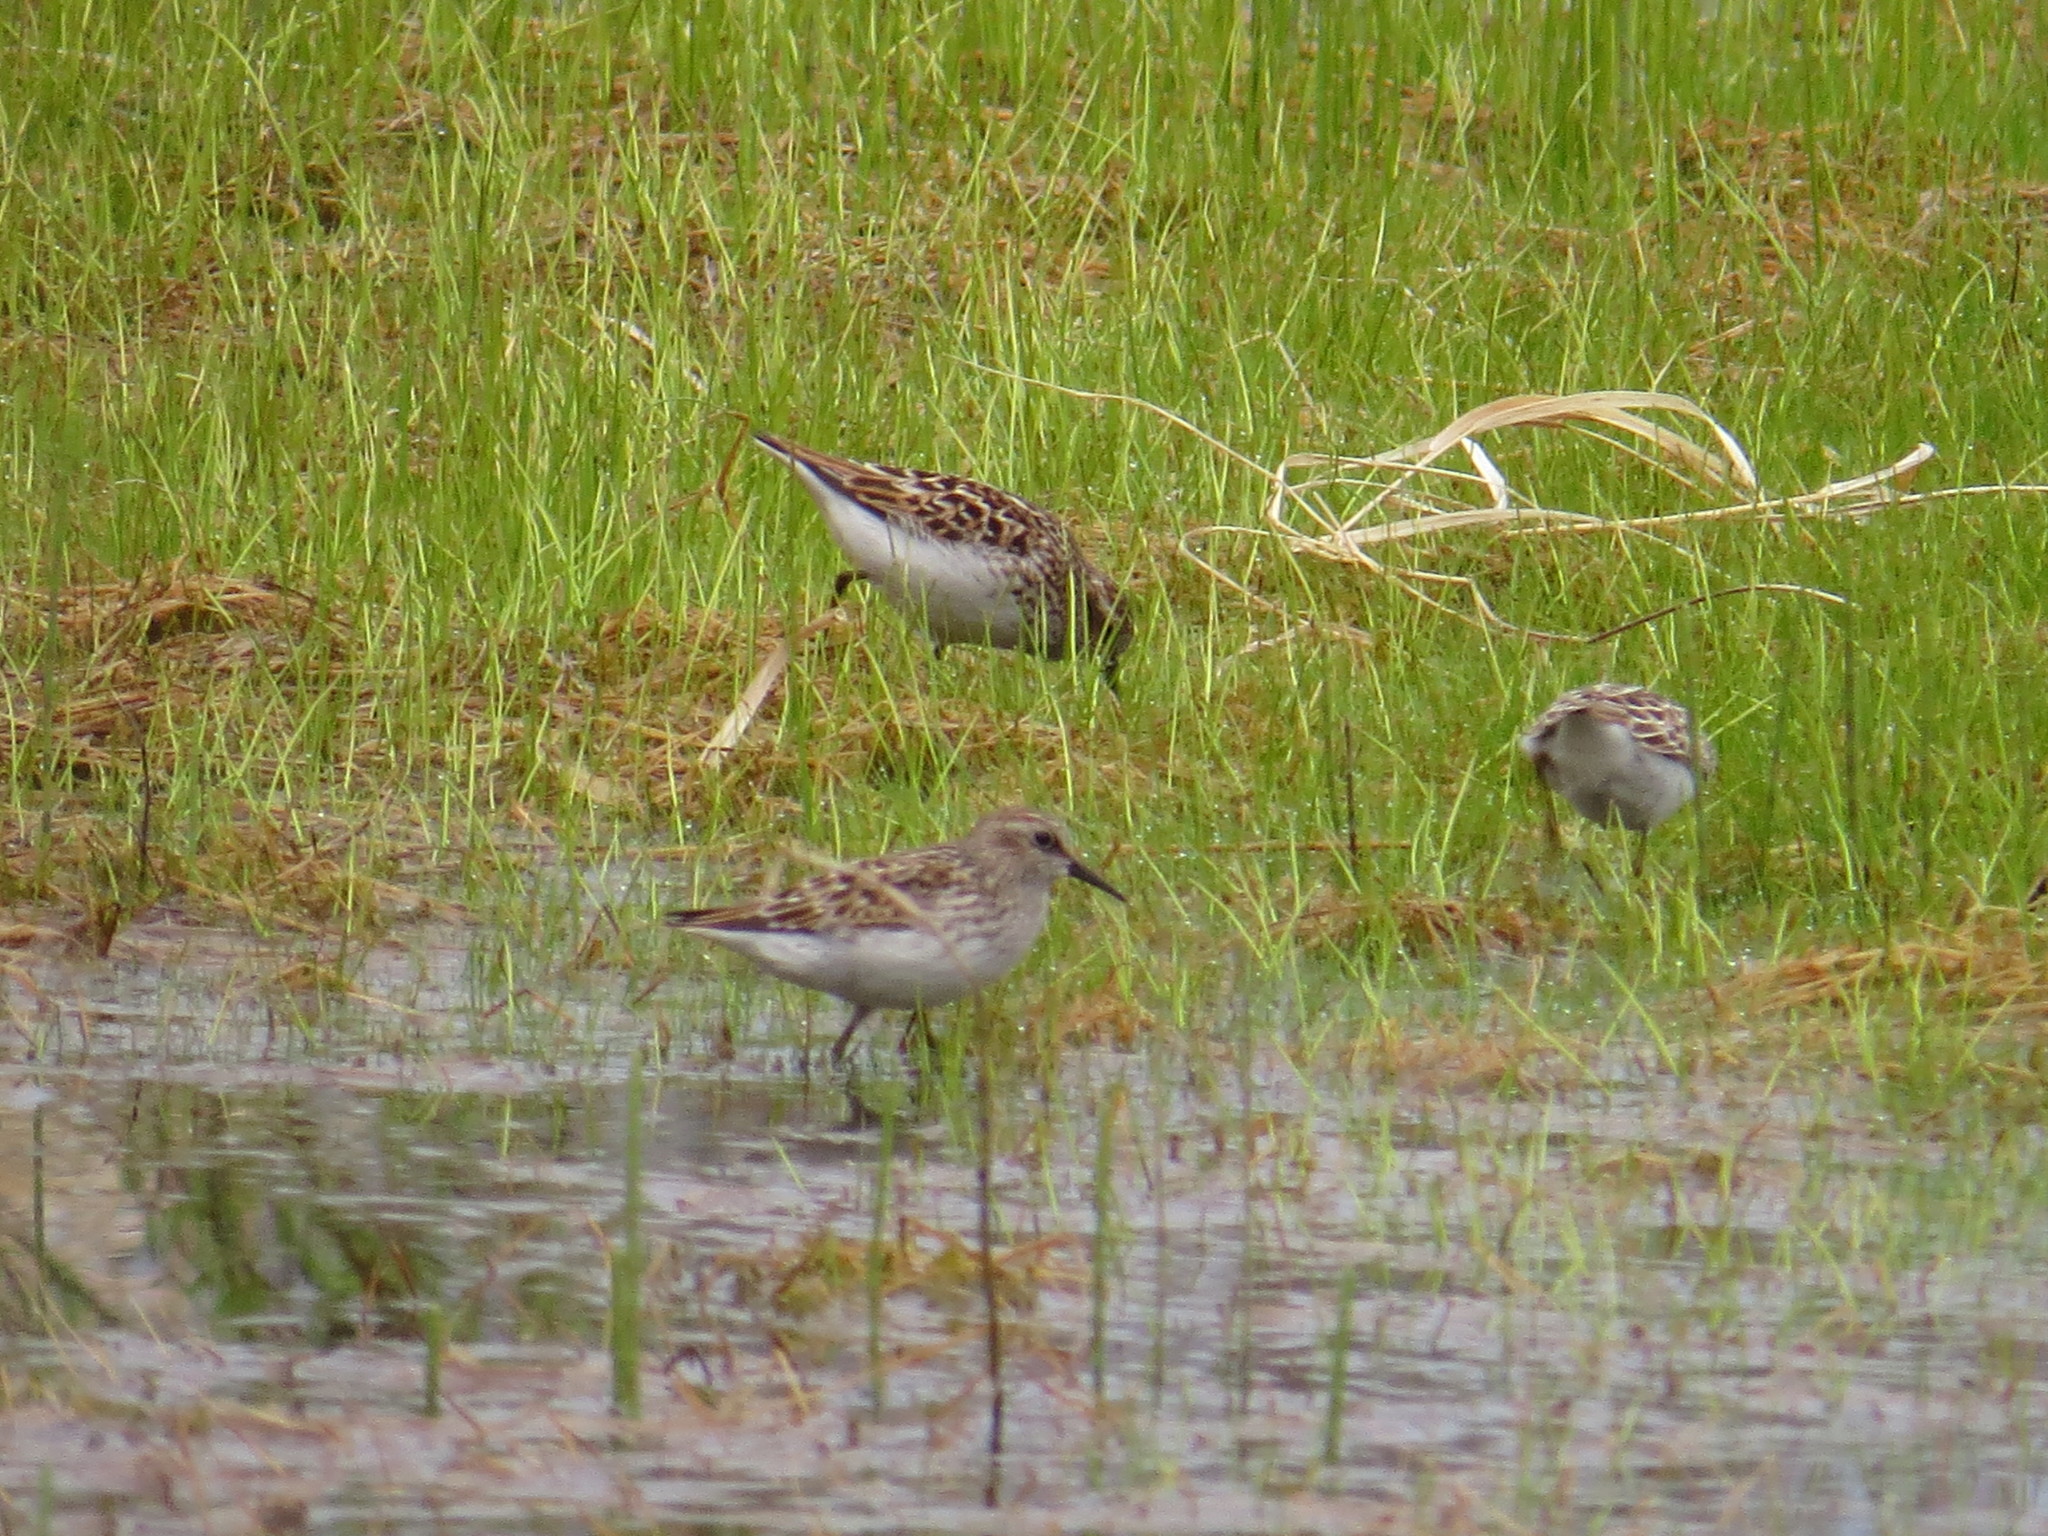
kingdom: Animalia
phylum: Chordata
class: Aves
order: Charadriiformes
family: Scolopacidae
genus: Calidris
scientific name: Calidris minutilla
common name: Least sandpiper
